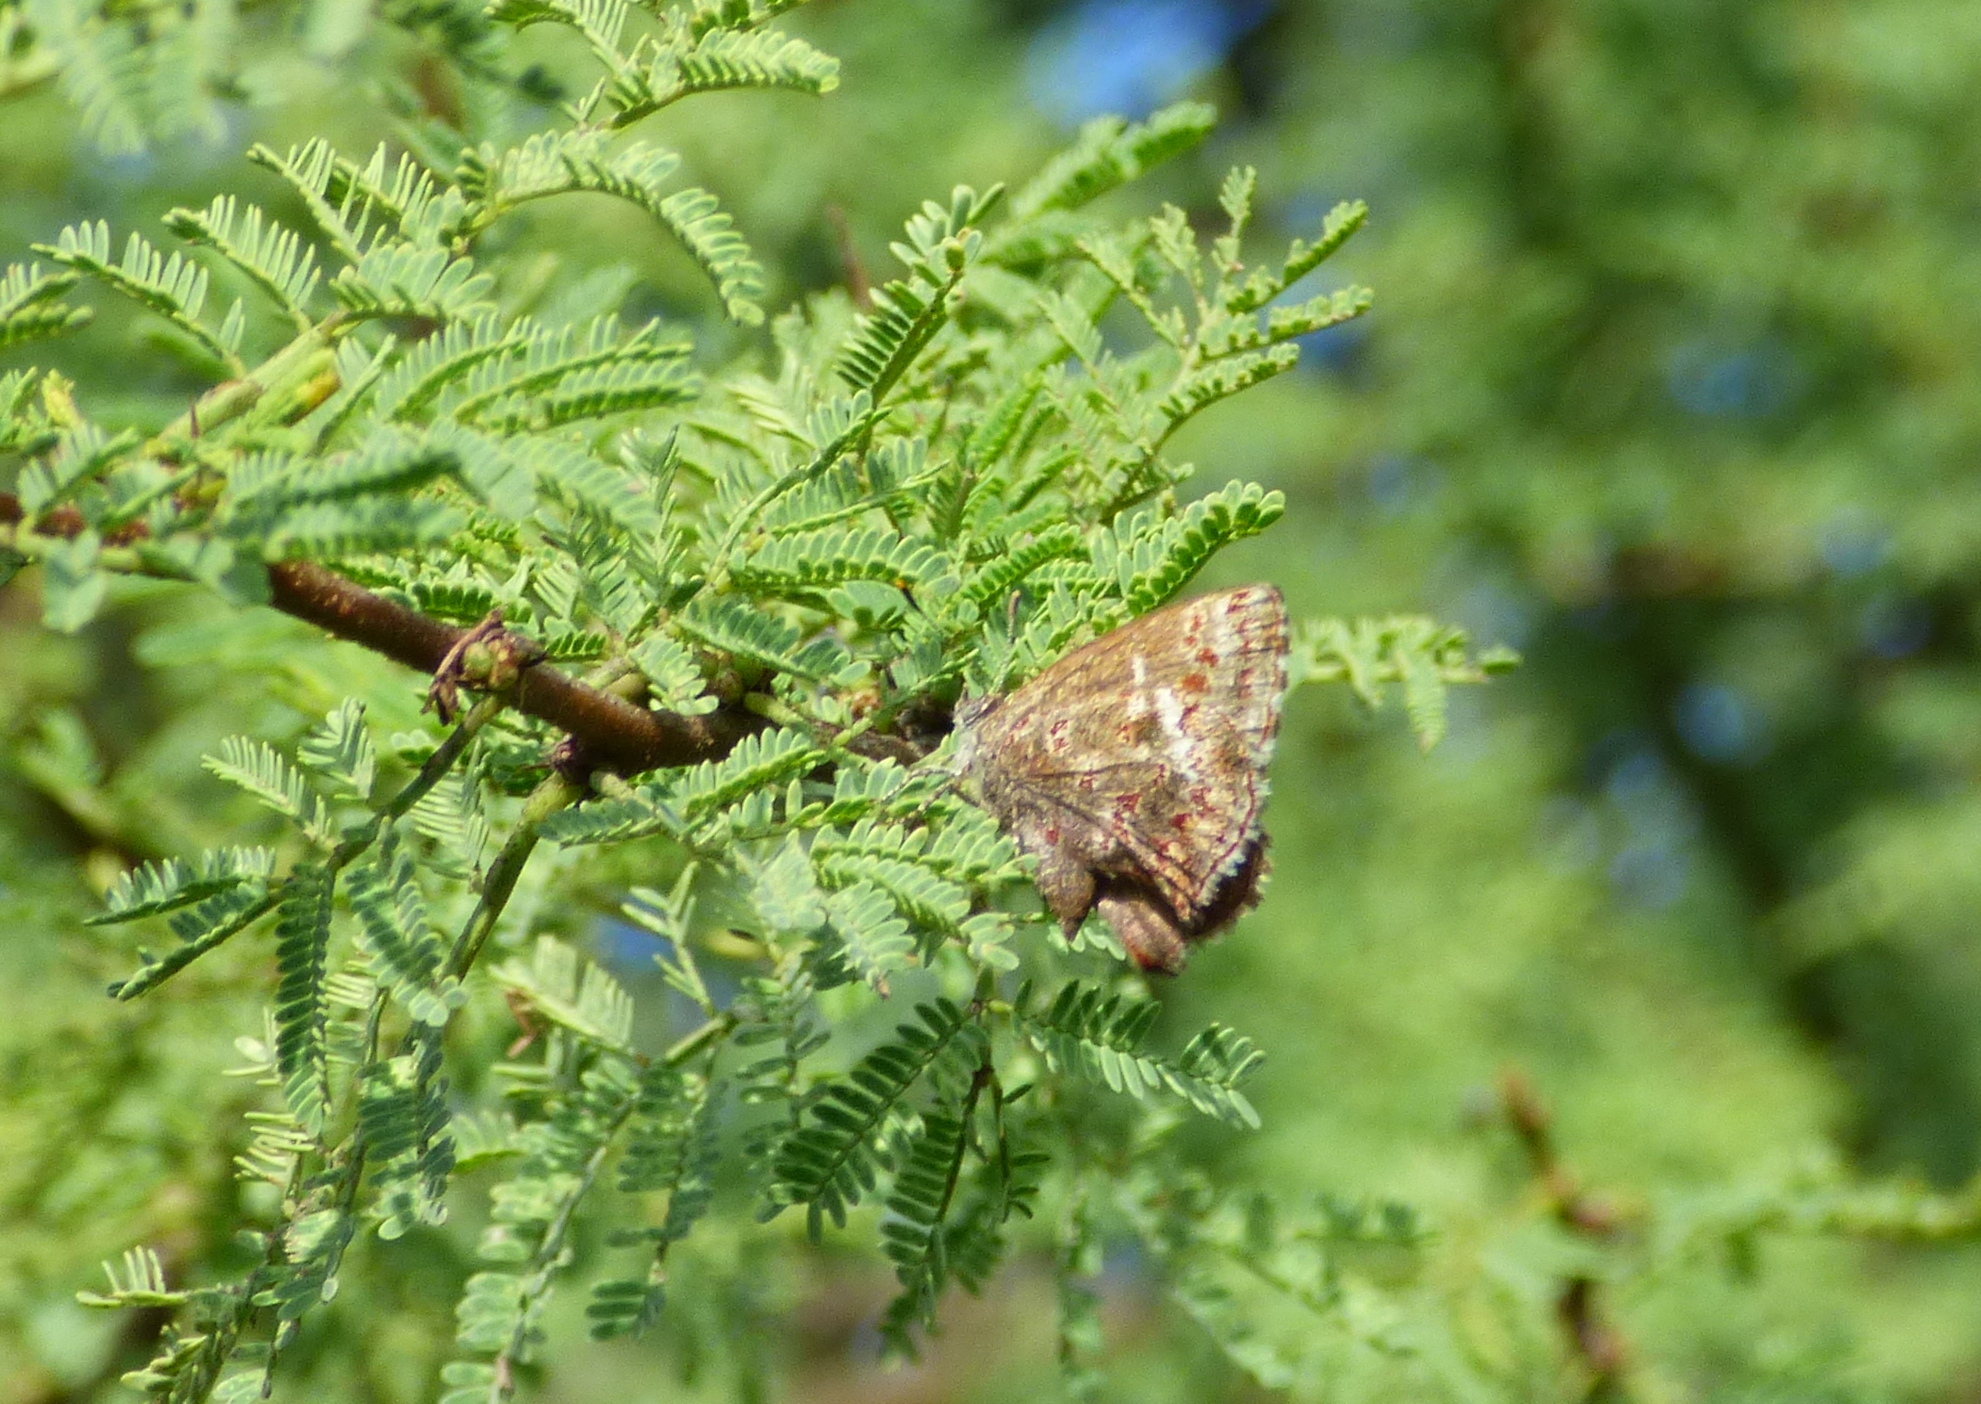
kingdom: Animalia
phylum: Arthropoda
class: Insecta
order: Lepidoptera
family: Lycaenidae
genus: Ministrymon
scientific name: Ministrymon
